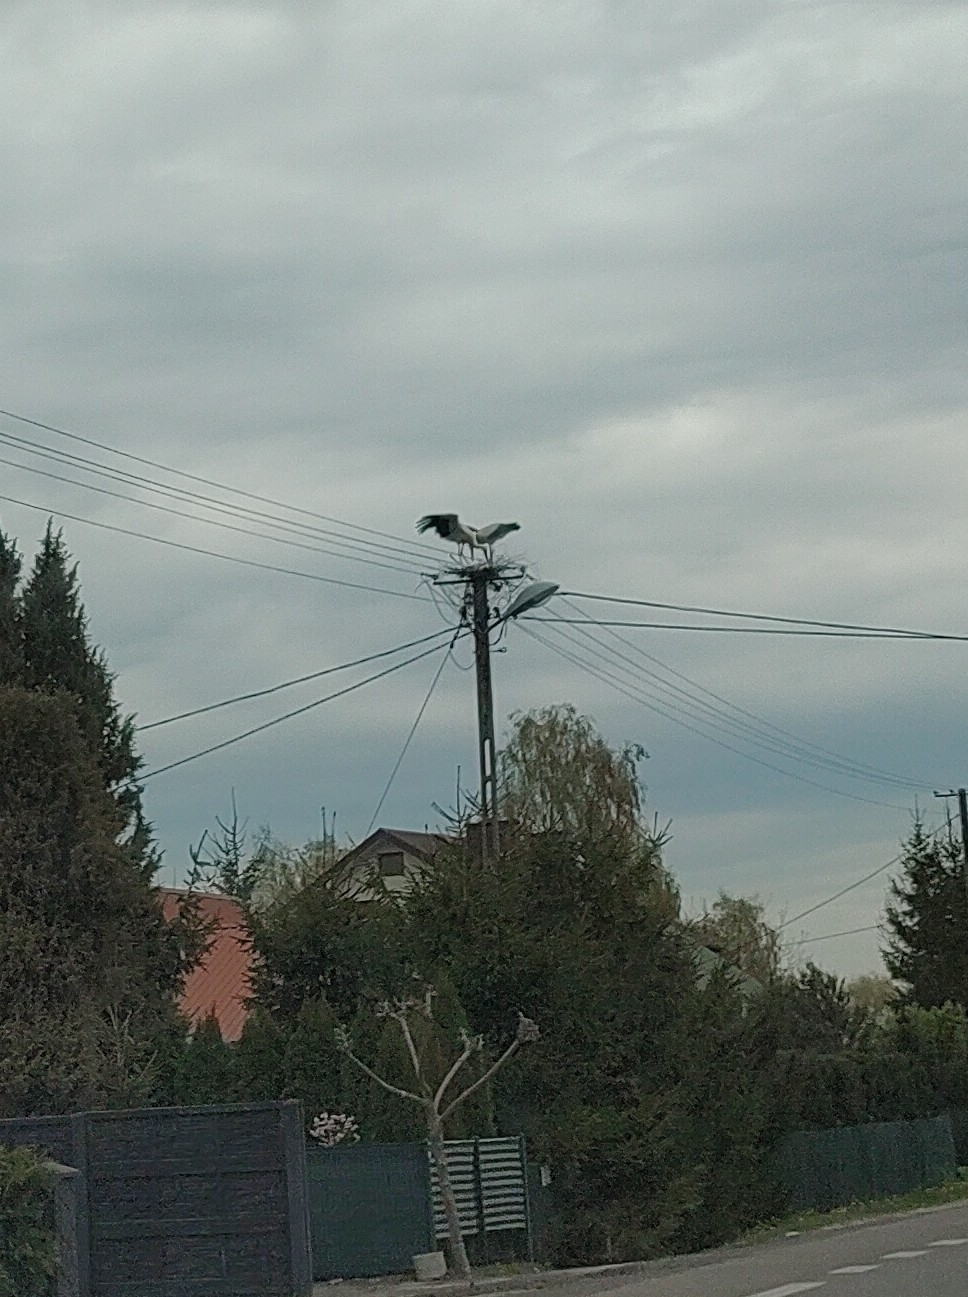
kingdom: Animalia
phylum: Chordata
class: Aves
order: Ciconiiformes
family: Ciconiidae
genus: Ciconia
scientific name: Ciconia ciconia
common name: White stork
